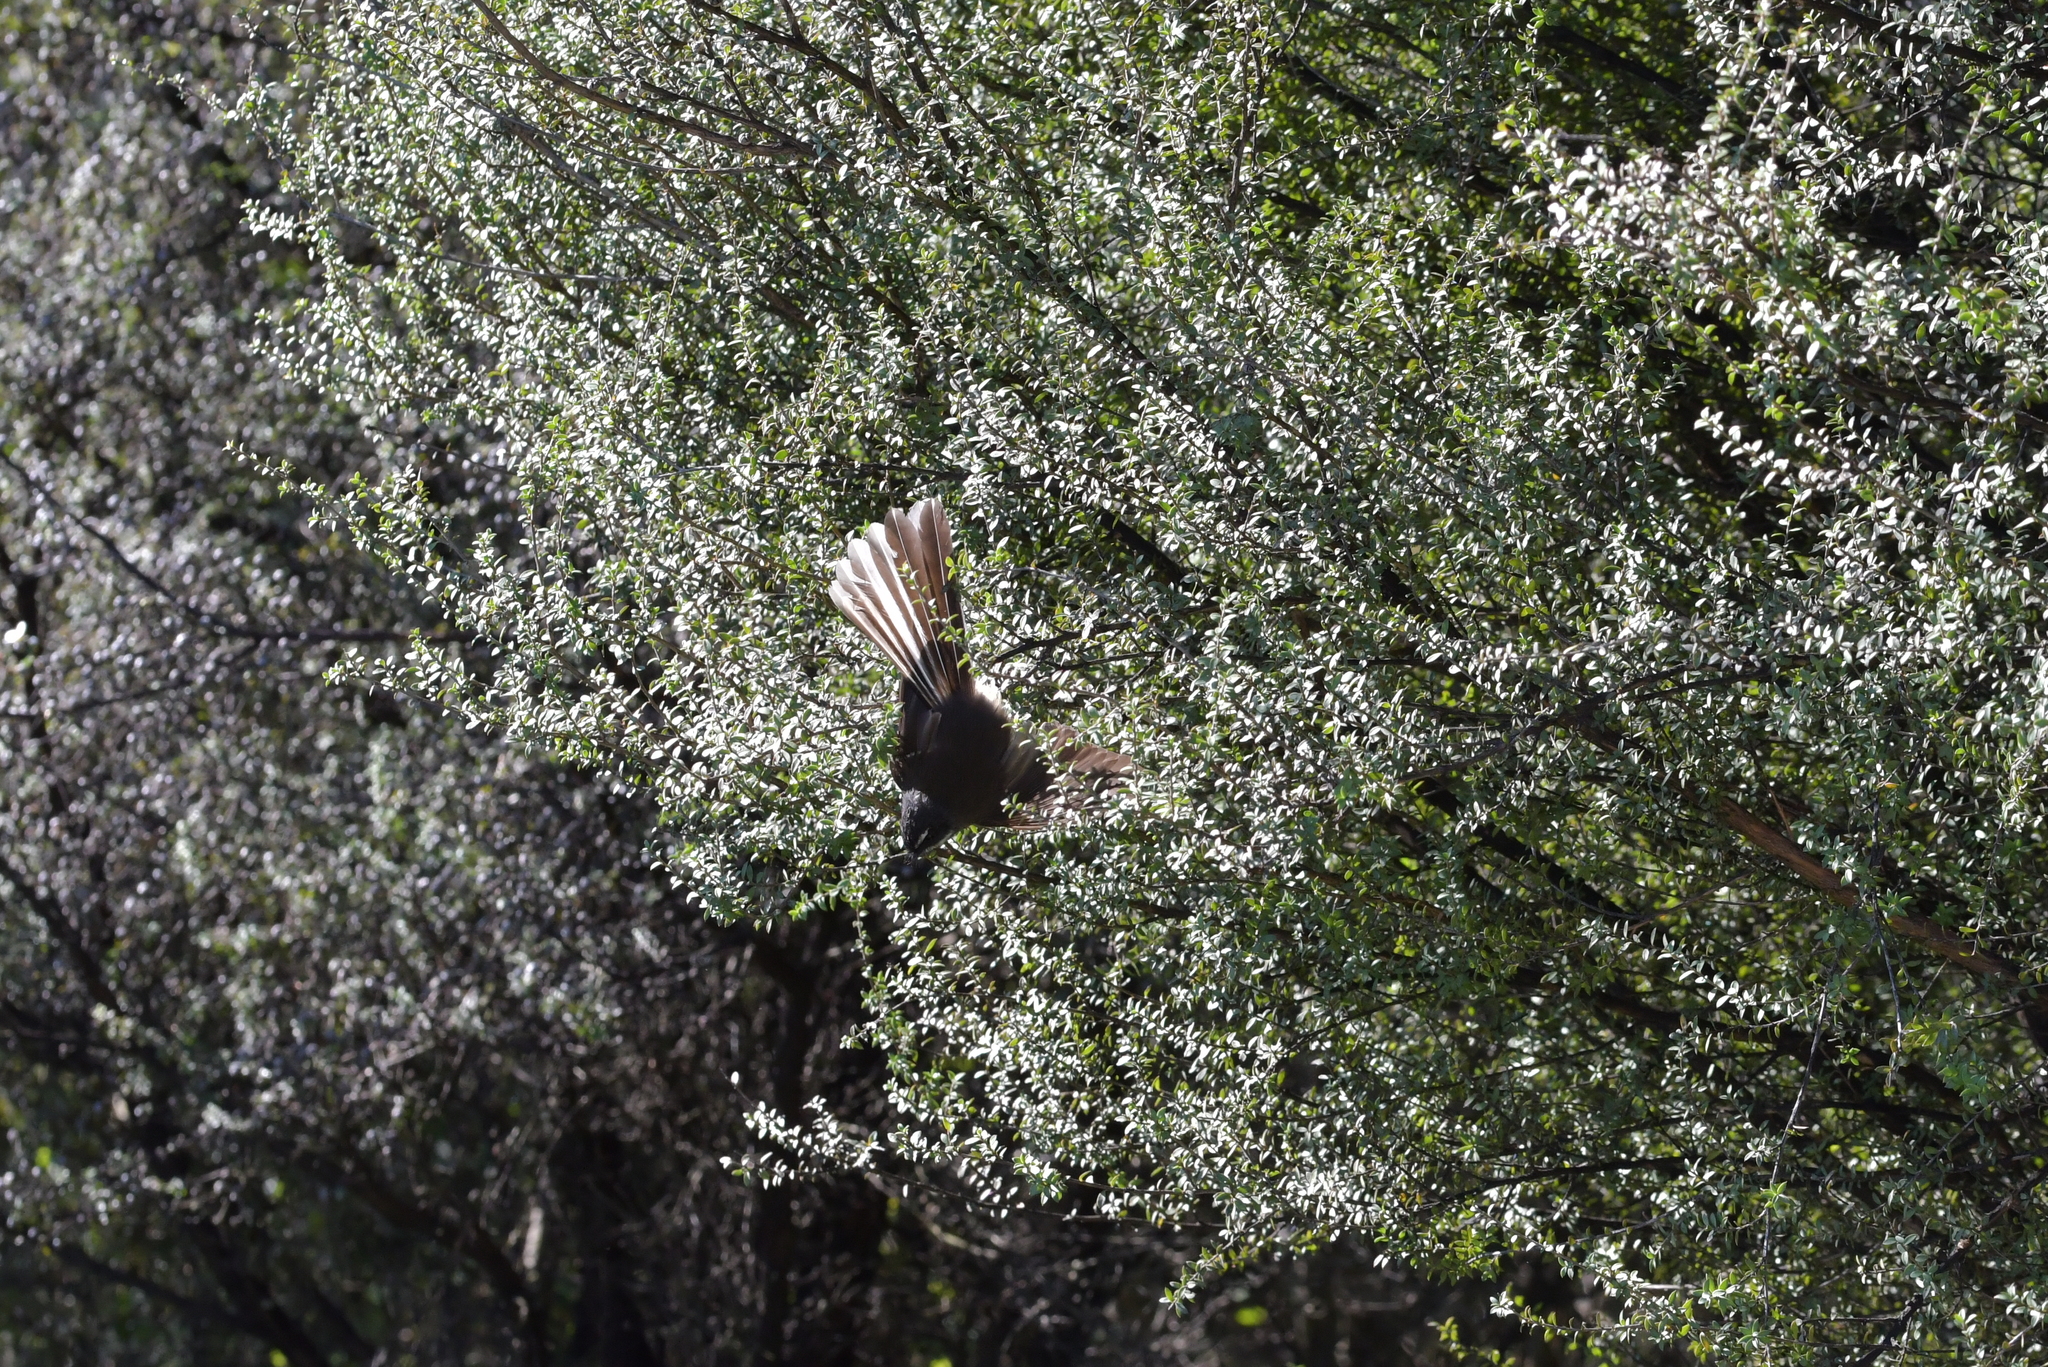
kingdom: Animalia
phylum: Chordata
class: Aves
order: Passeriformes
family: Rhipiduridae
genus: Rhipidura
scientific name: Rhipidura fuliginosa
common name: New zealand fantail
